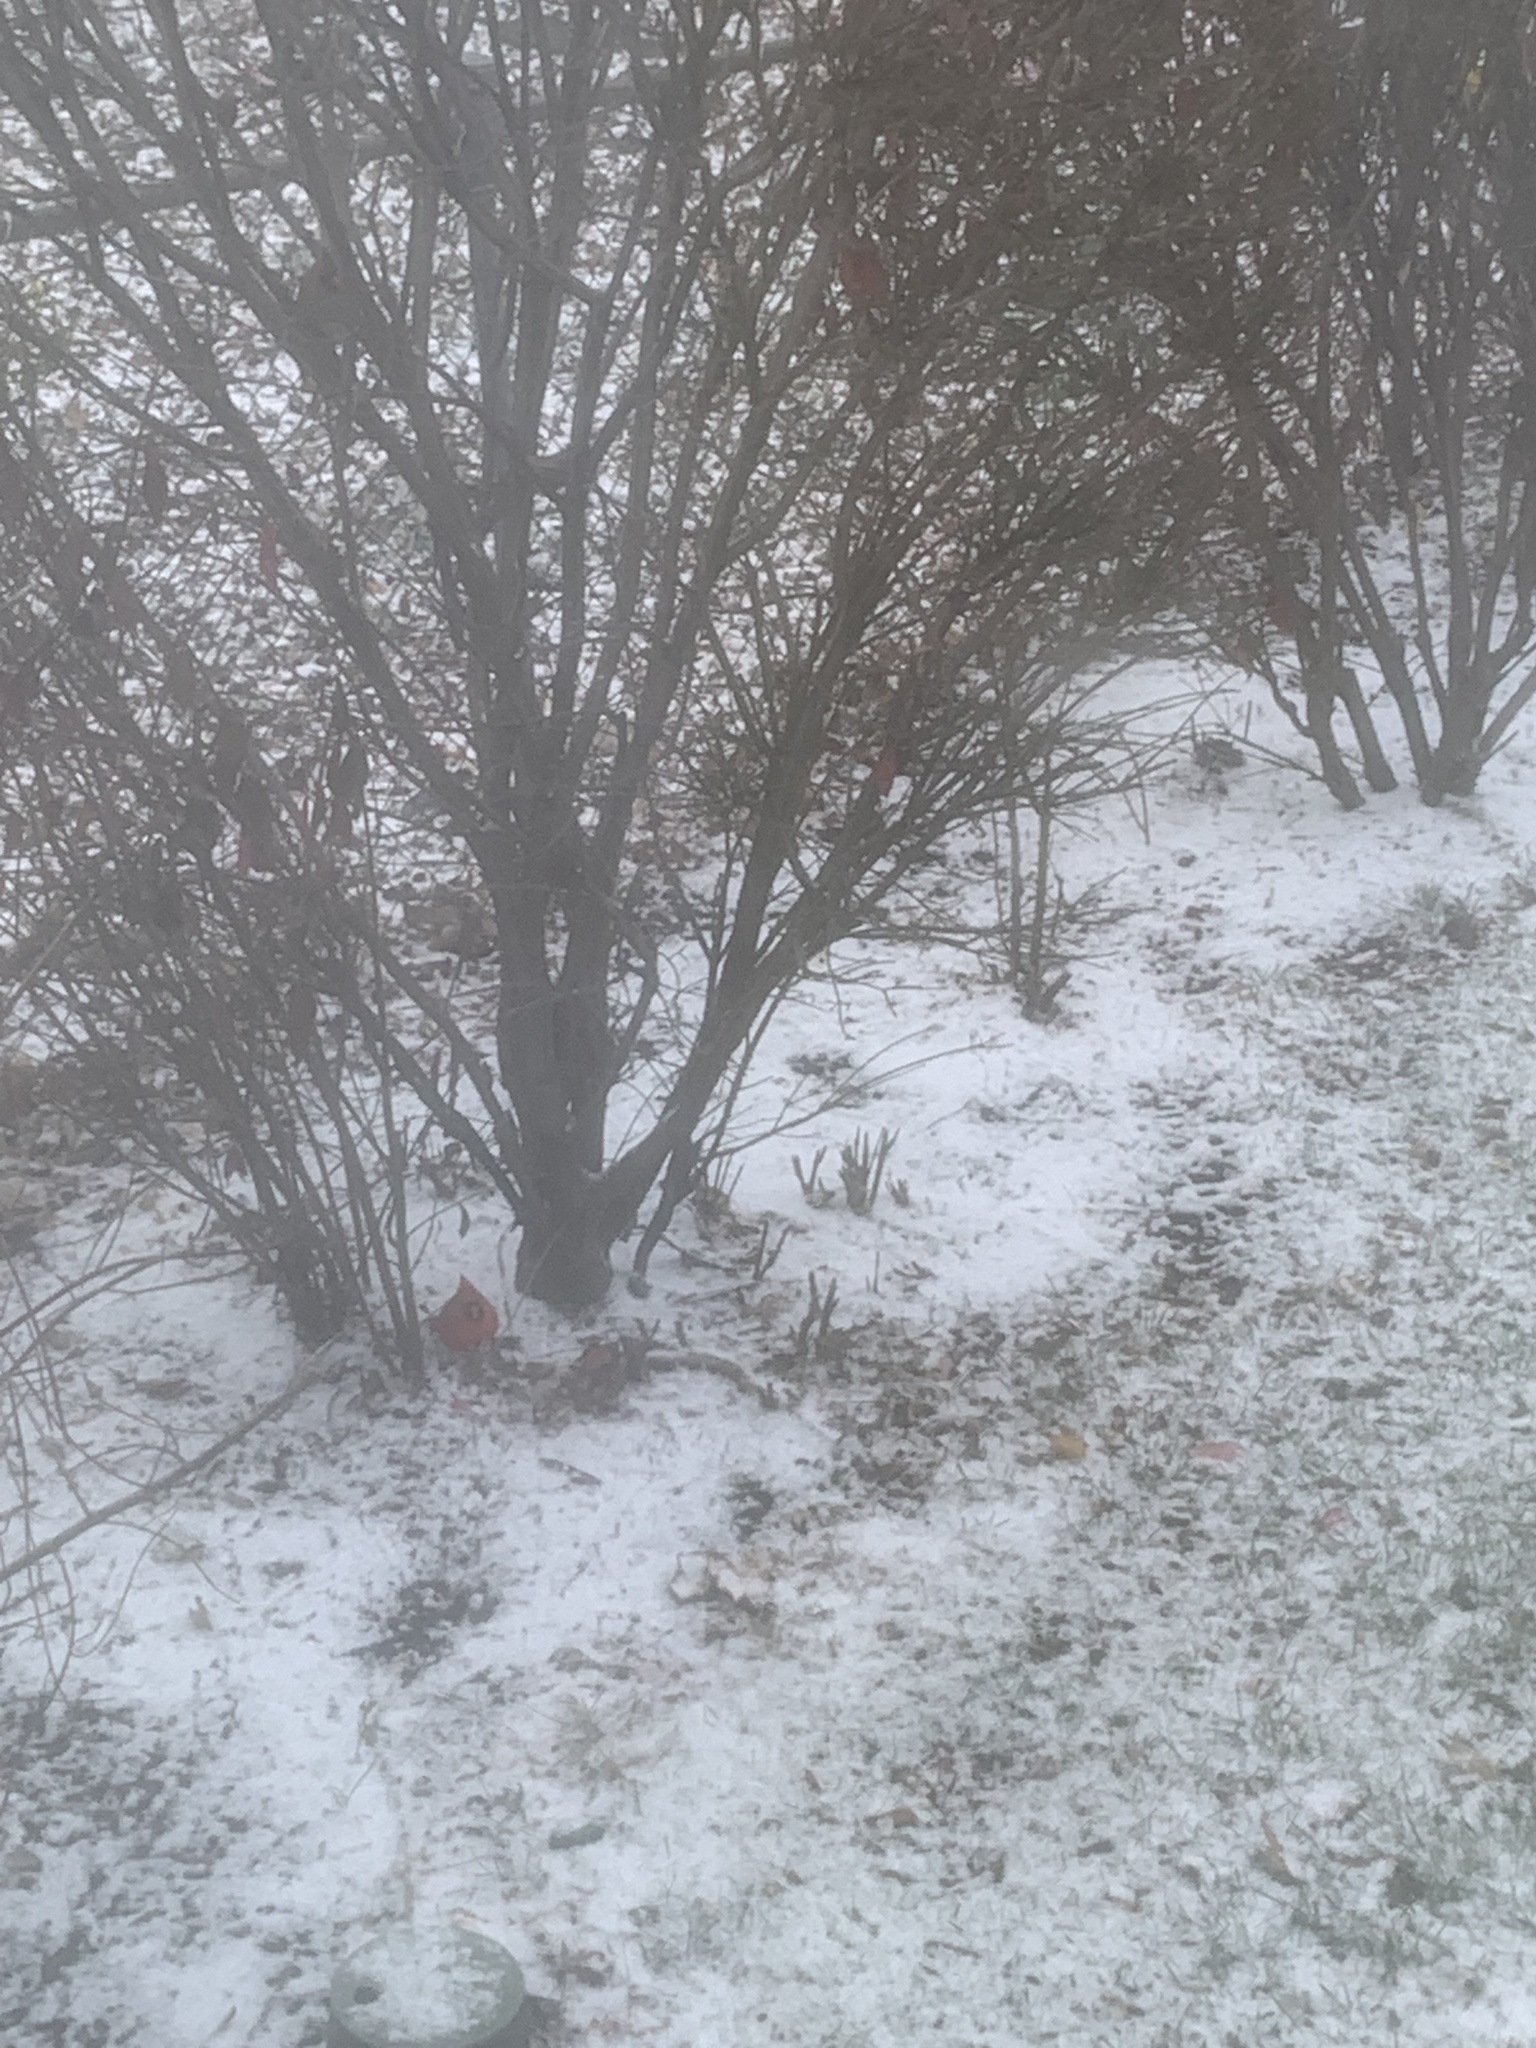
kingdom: Animalia
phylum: Chordata
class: Aves
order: Passeriformes
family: Cardinalidae
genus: Cardinalis
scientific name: Cardinalis cardinalis
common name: Northern cardinal
